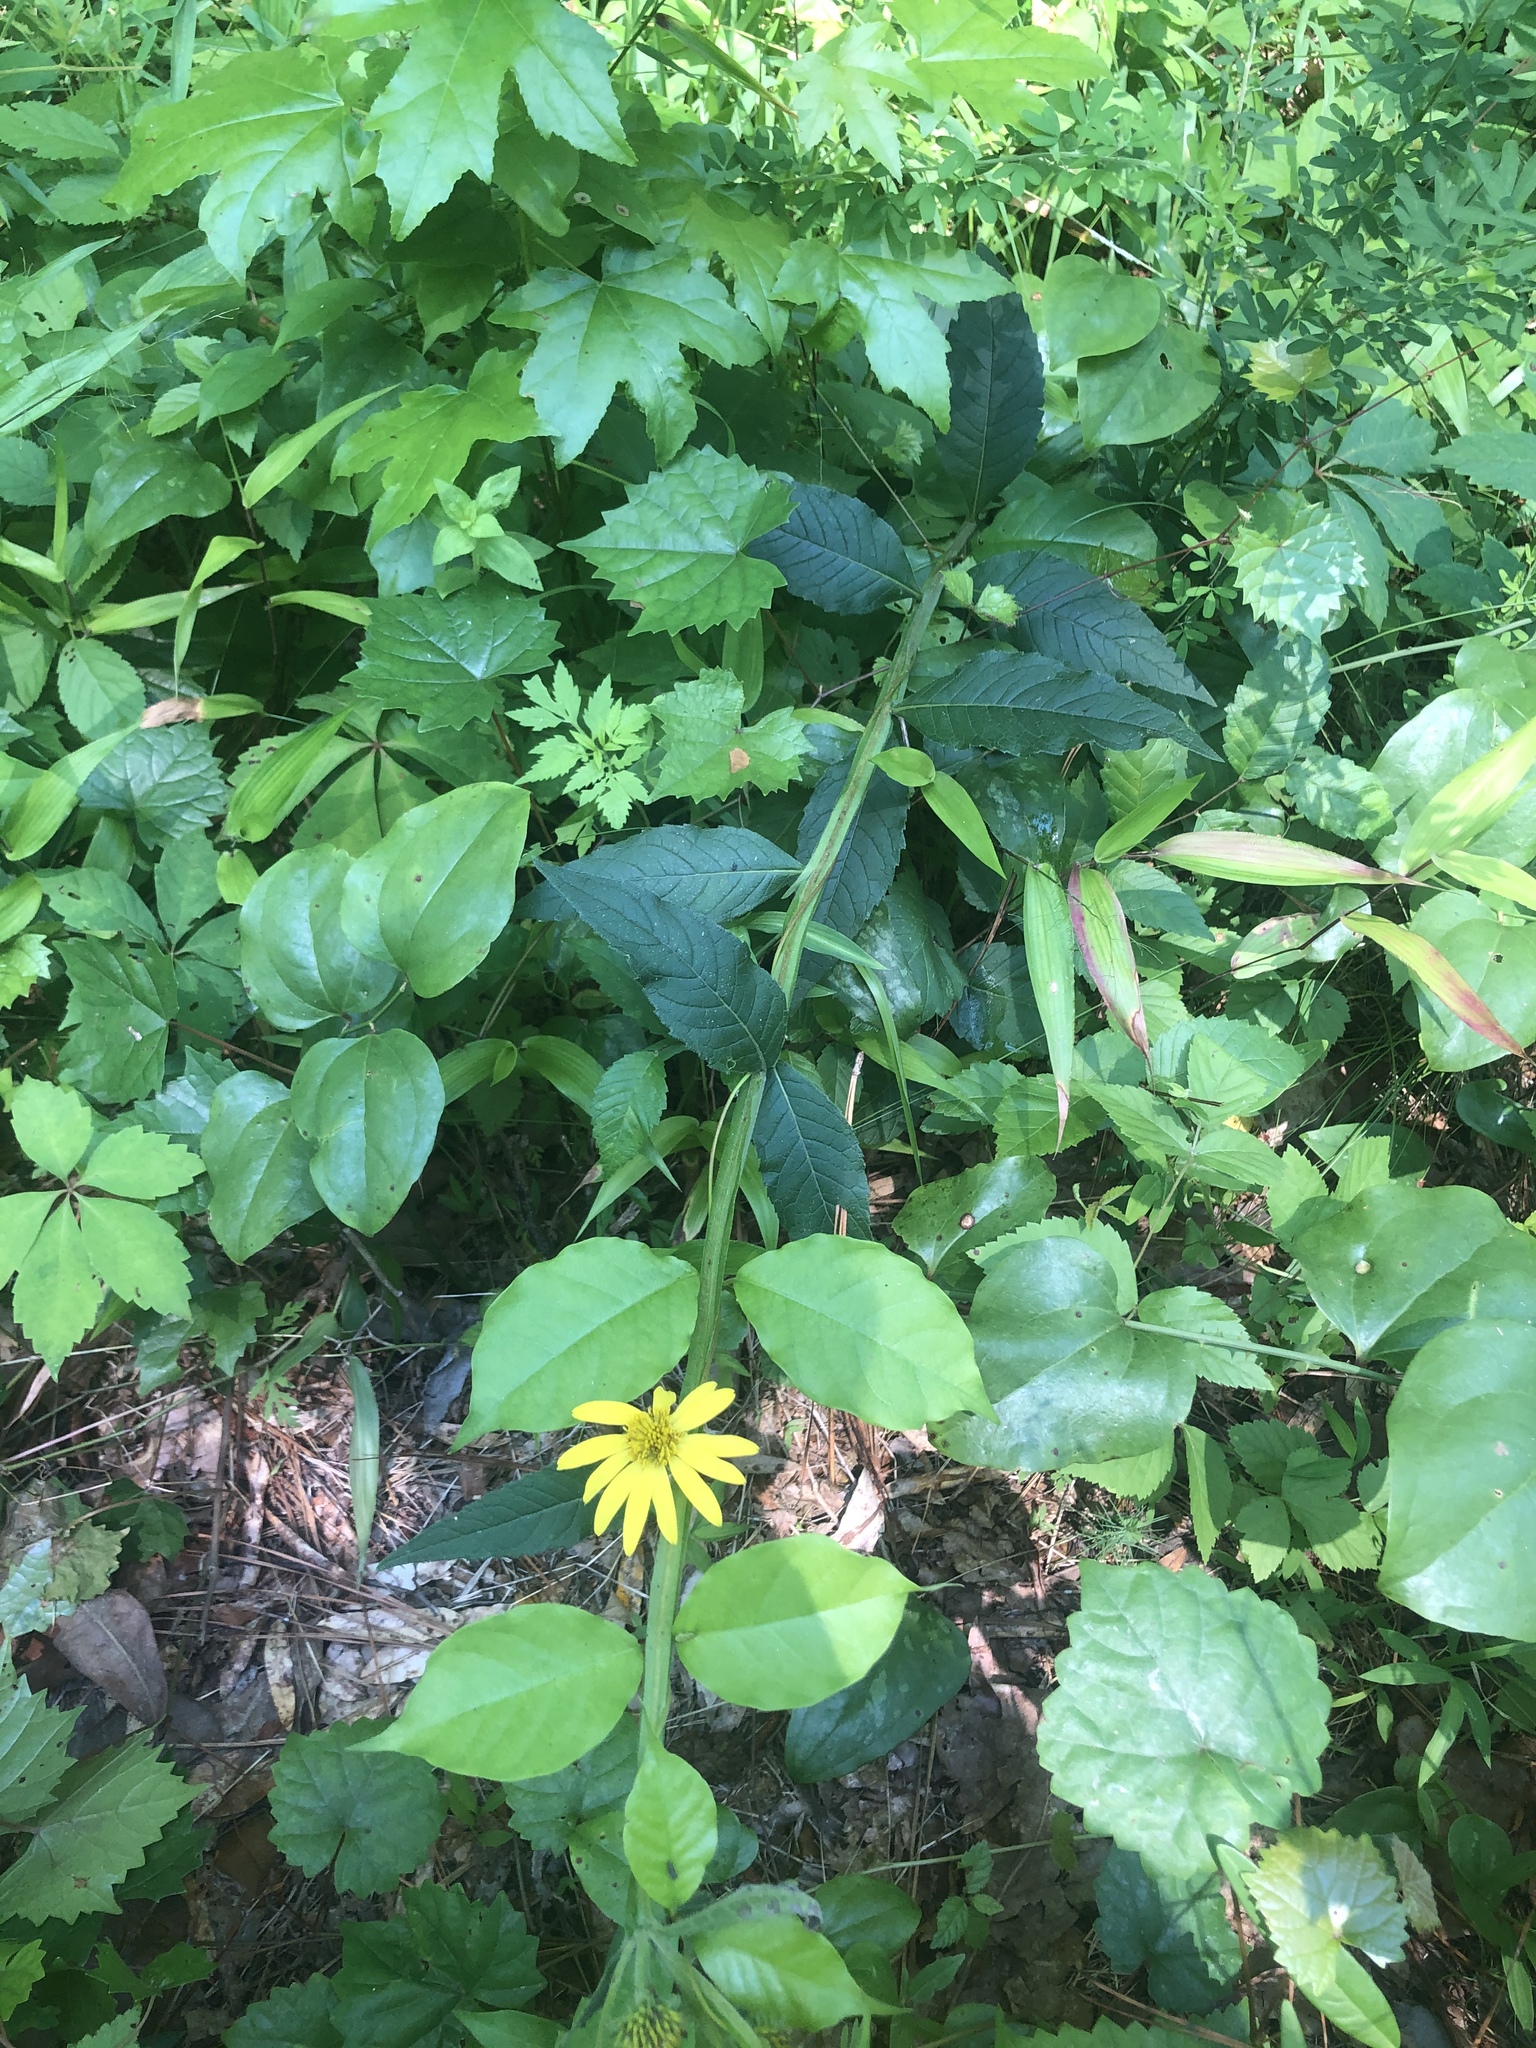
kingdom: Plantae
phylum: Tracheophyta
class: Magnoliopsida
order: Asterales
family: Asteraceae
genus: Verbesina
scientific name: Verbesina helianthoides
